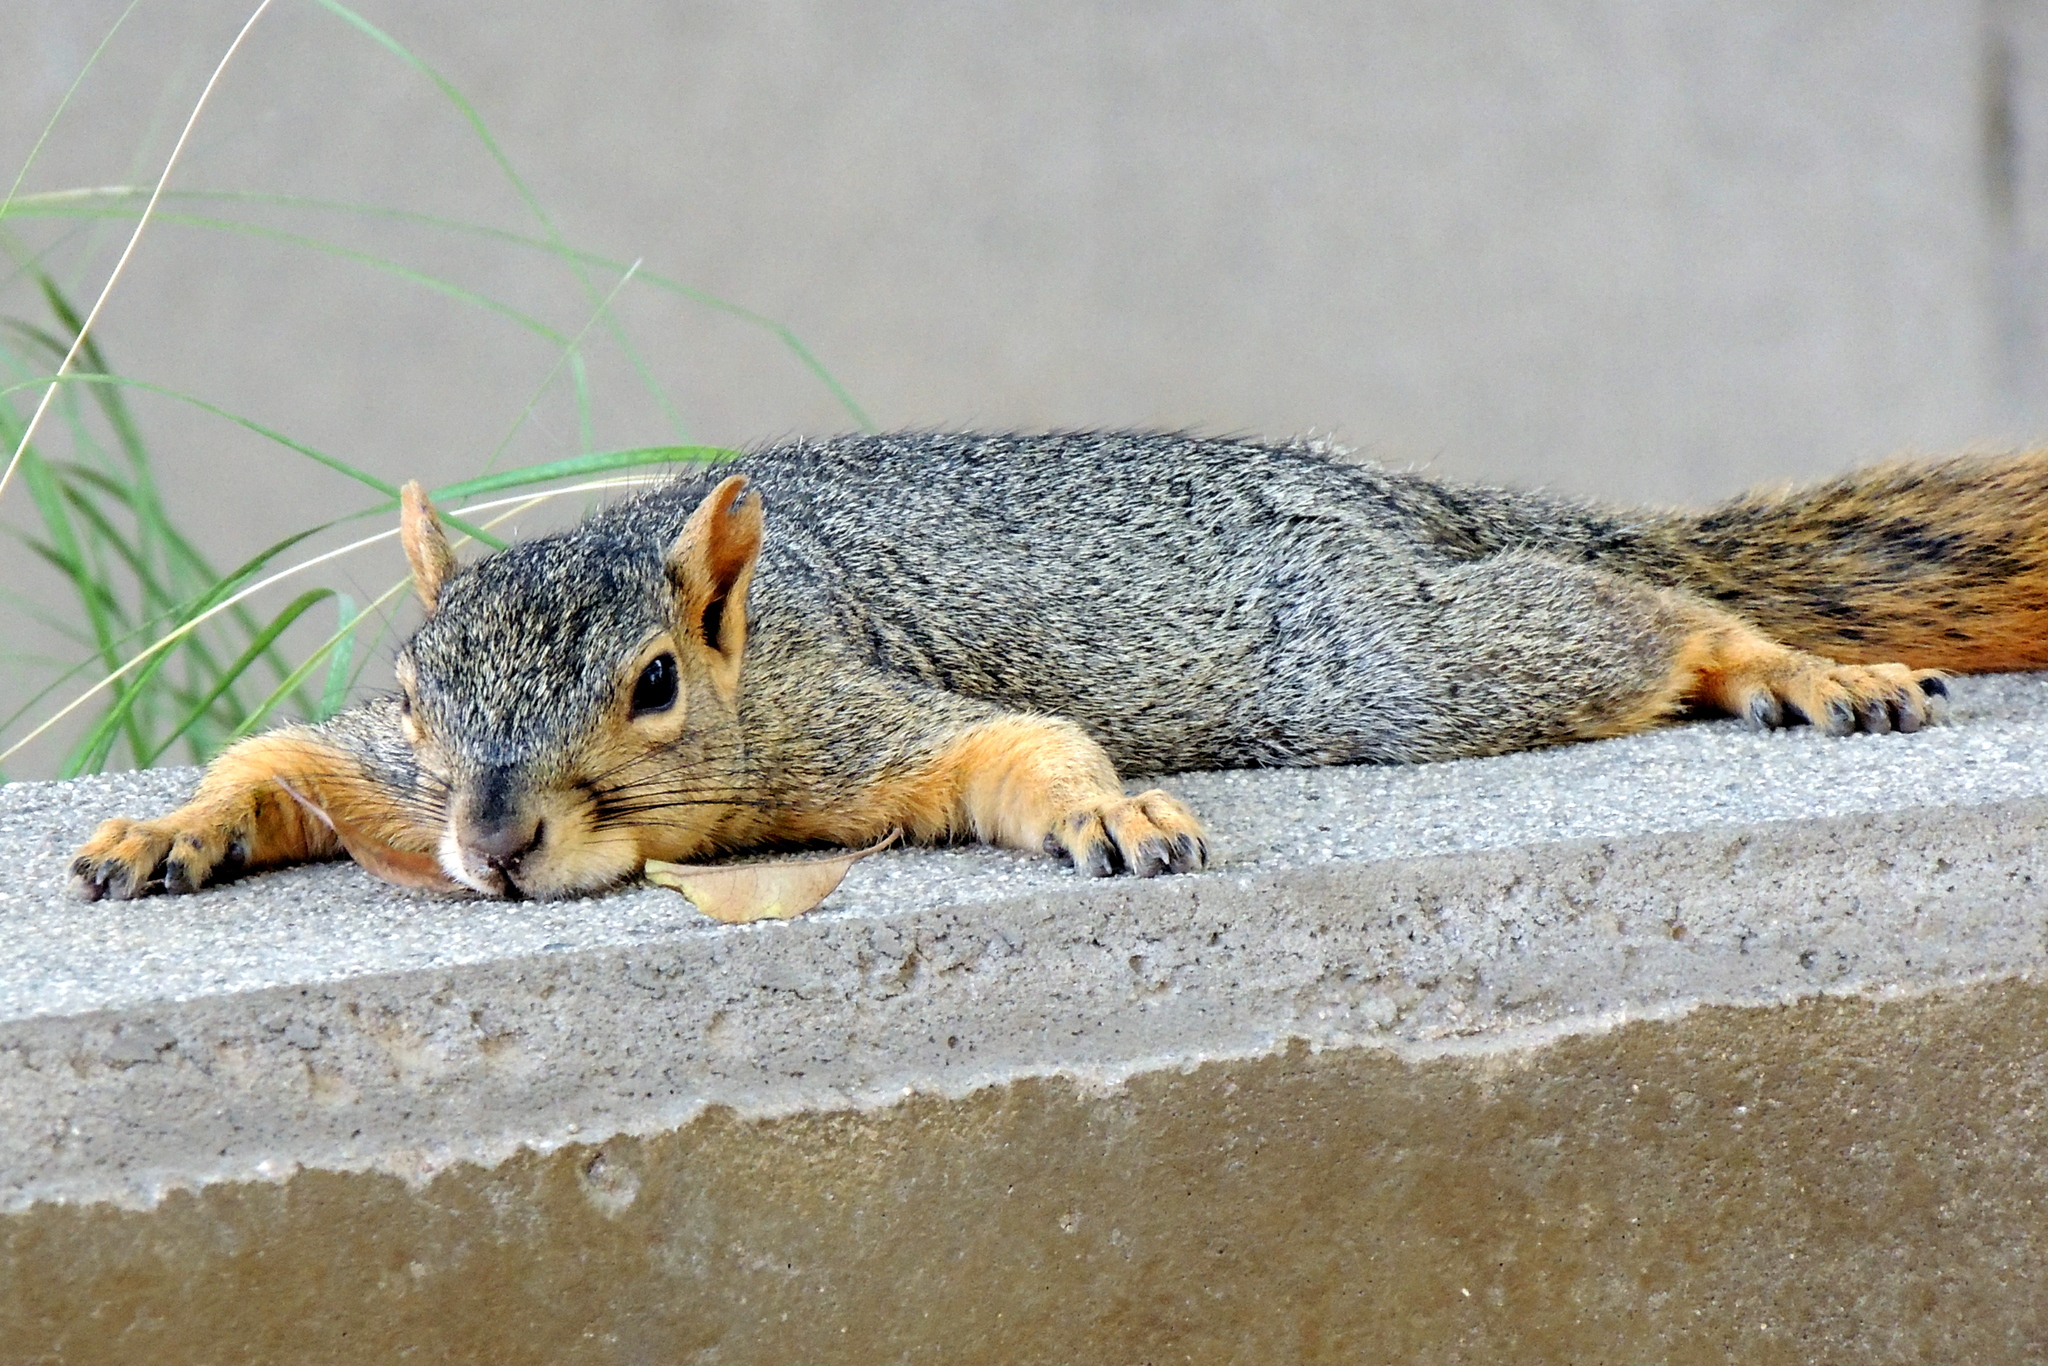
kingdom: Animalia
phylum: Chordata
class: Mammalia
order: Rodentia
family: Sciuridae
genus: Sciurus
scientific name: Sciurus niger
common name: Fox squirrel
